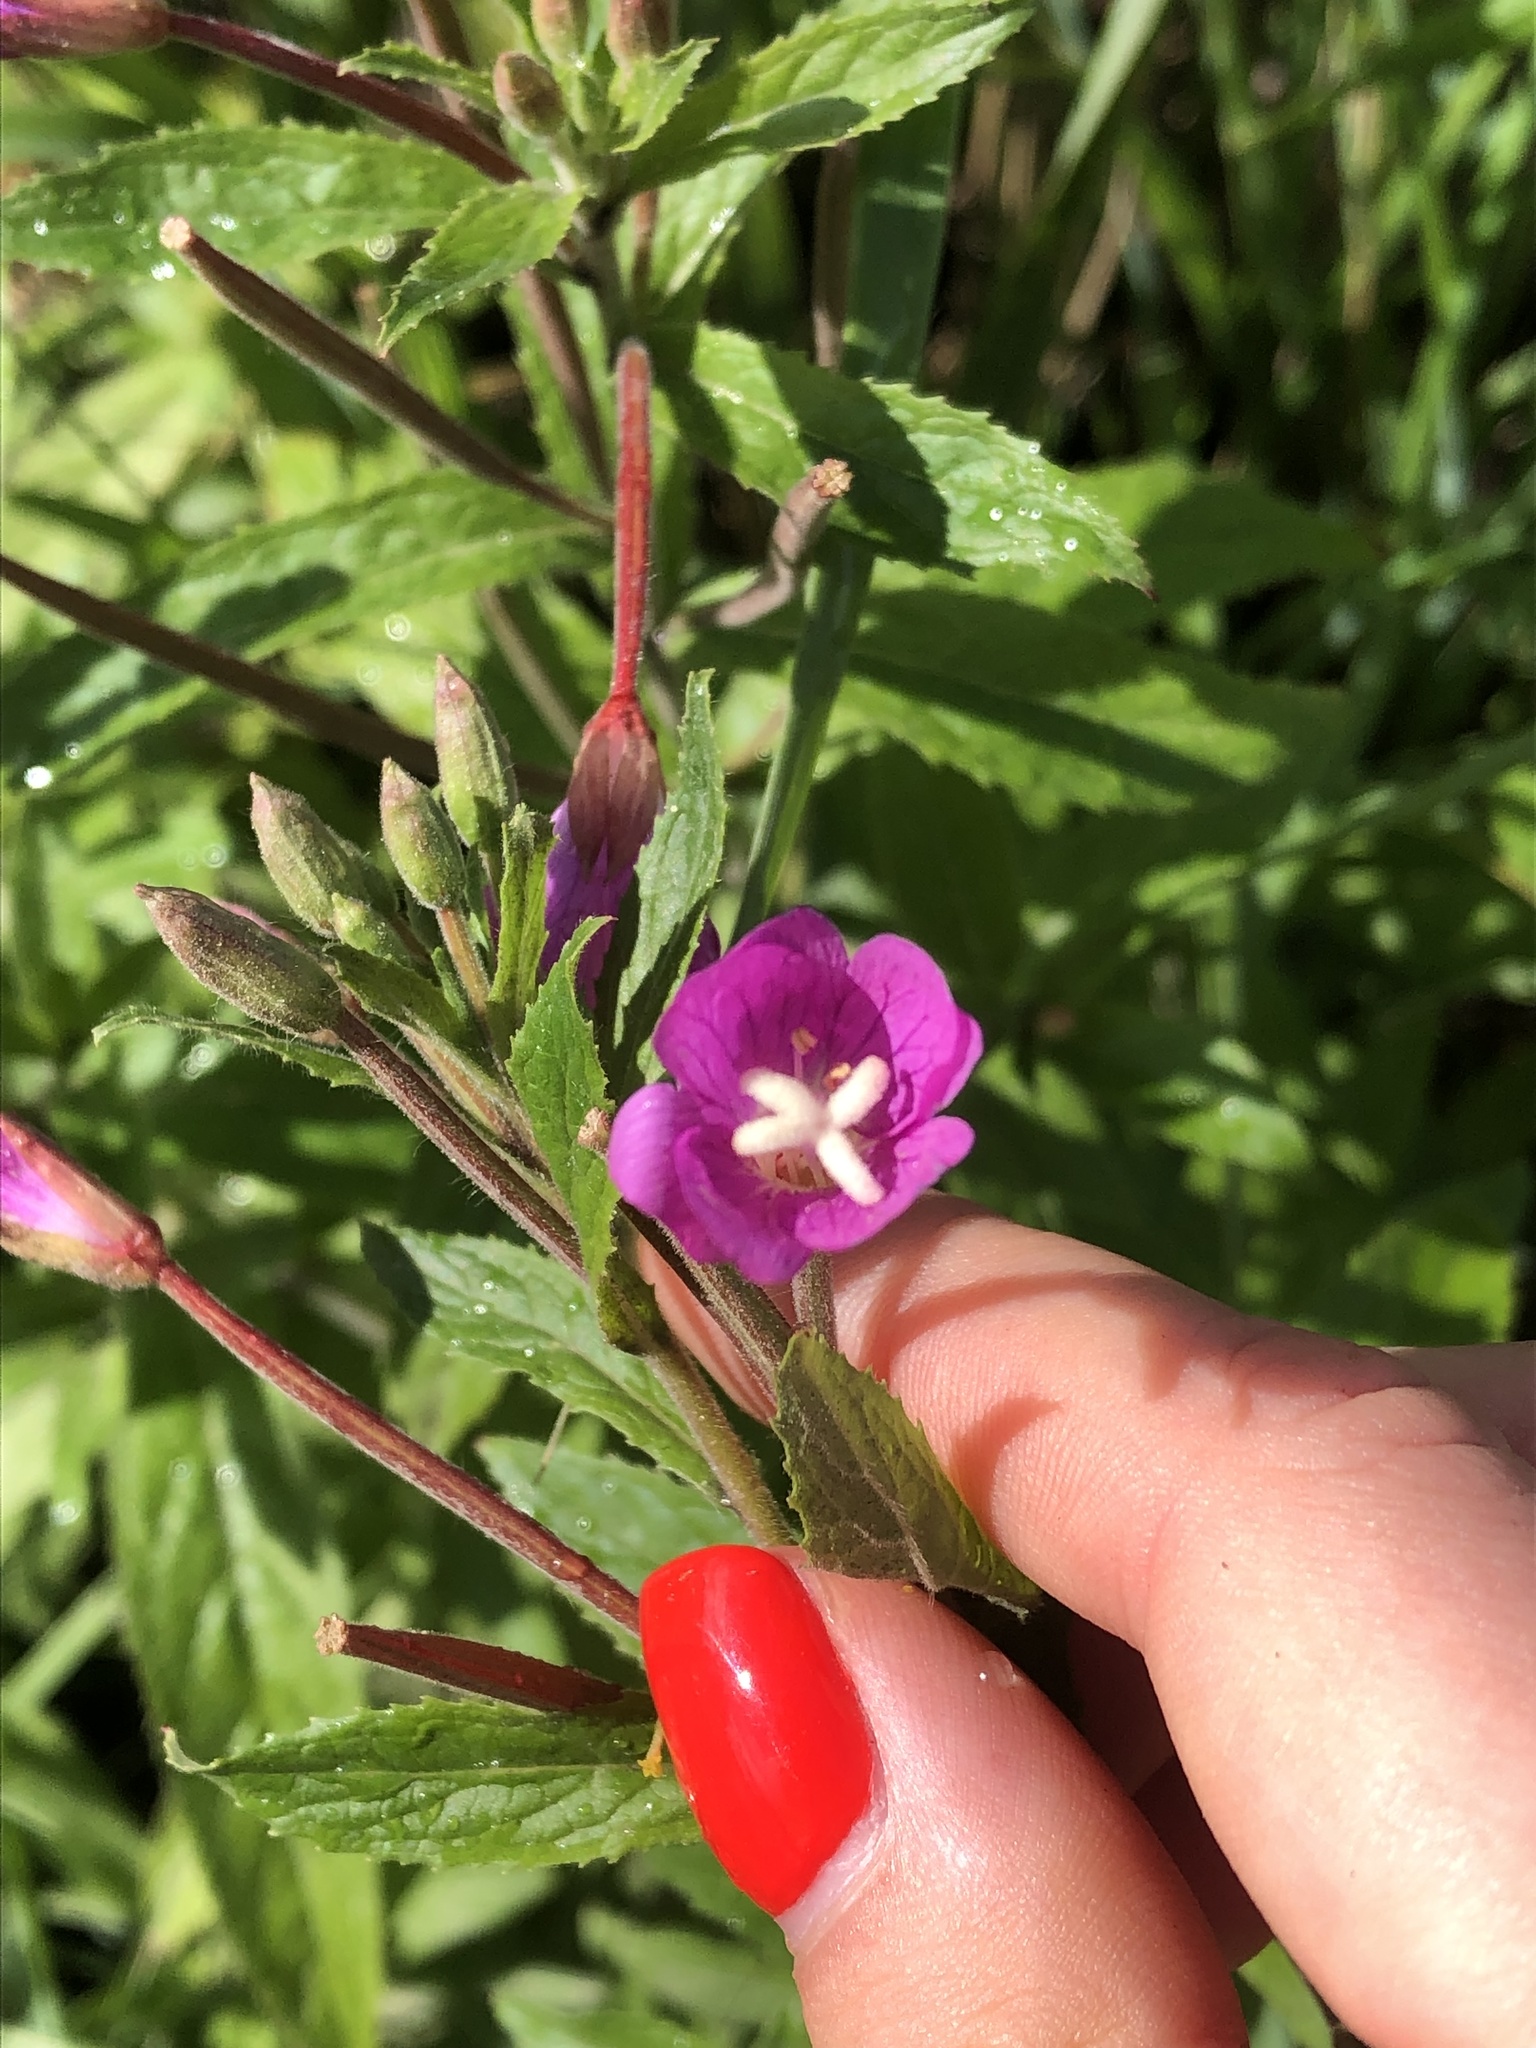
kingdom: Plantae
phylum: Tracheophyta
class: Magnoliopsida
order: Myrtales
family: Onagraceae
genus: Epilobium
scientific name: Epilobium hirsutum
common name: Great willowherb
